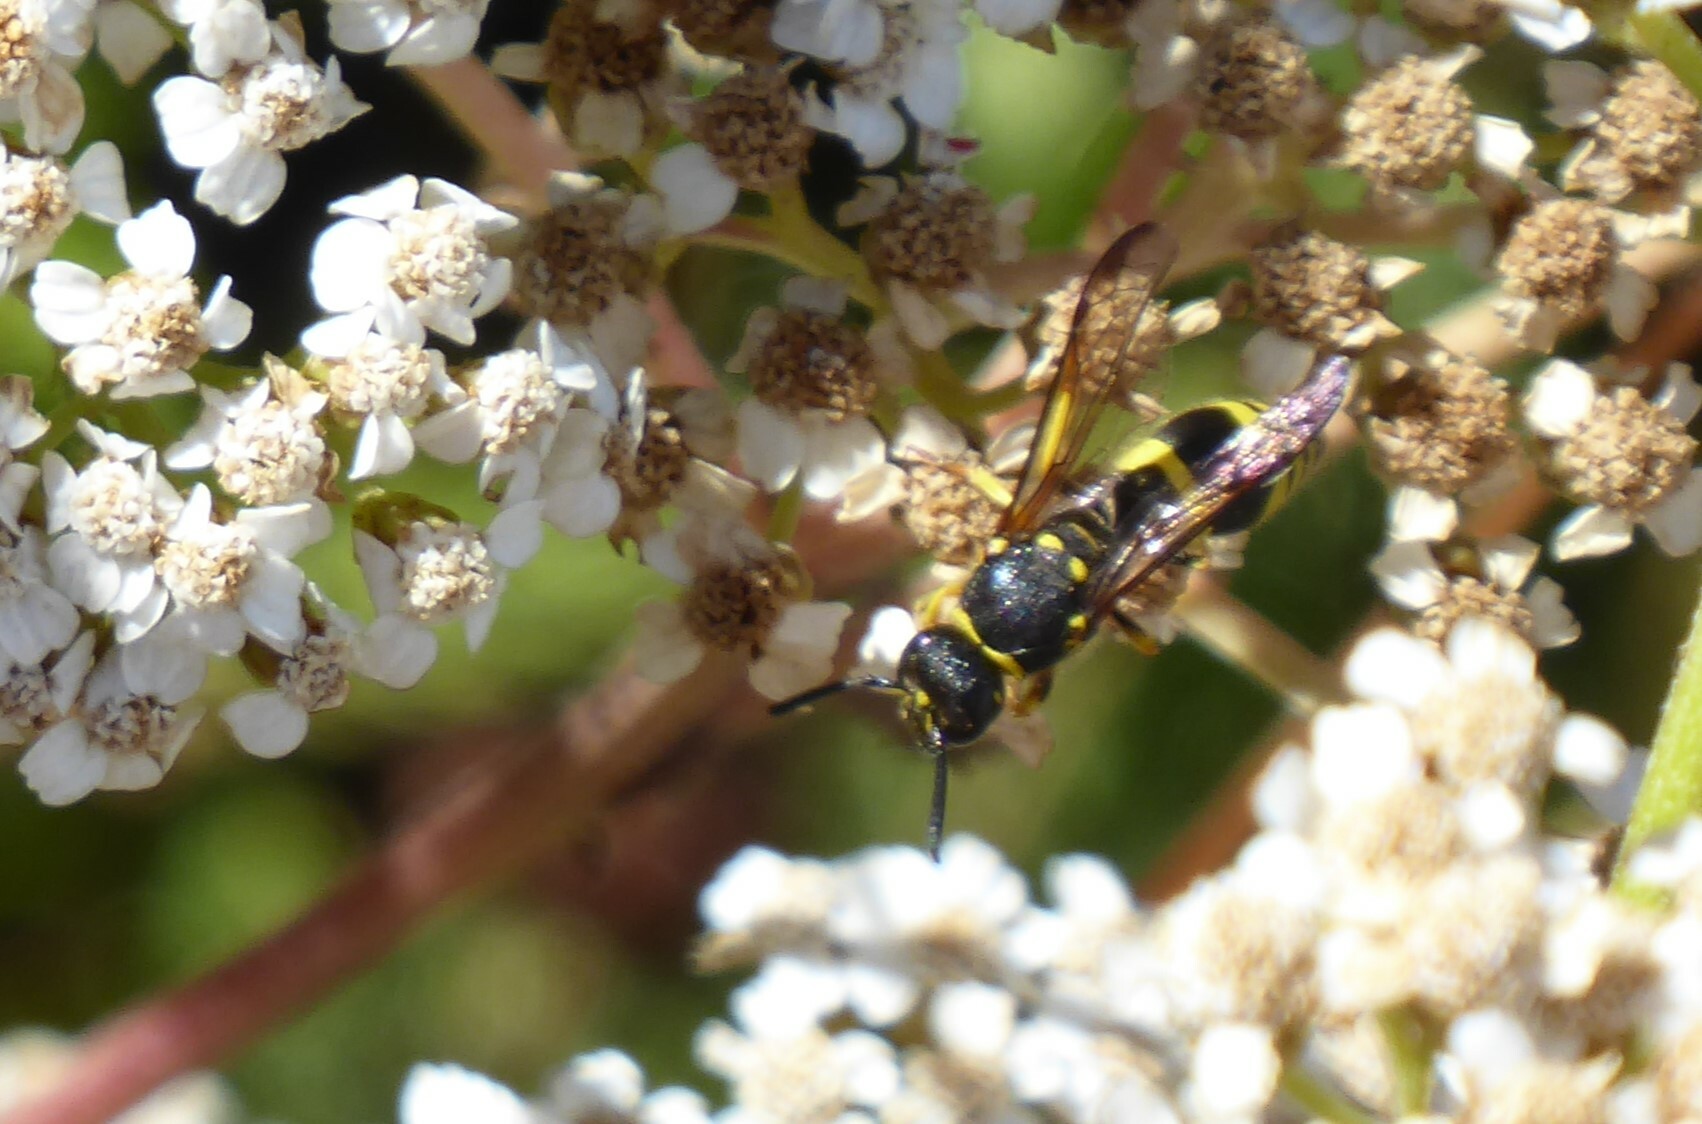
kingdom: Animalia
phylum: Arthropoda
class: Insecta
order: Hymenoptera
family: Vespidae
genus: Ancistrocerus
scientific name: Ancistrocerus gazella
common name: European tube wasp
